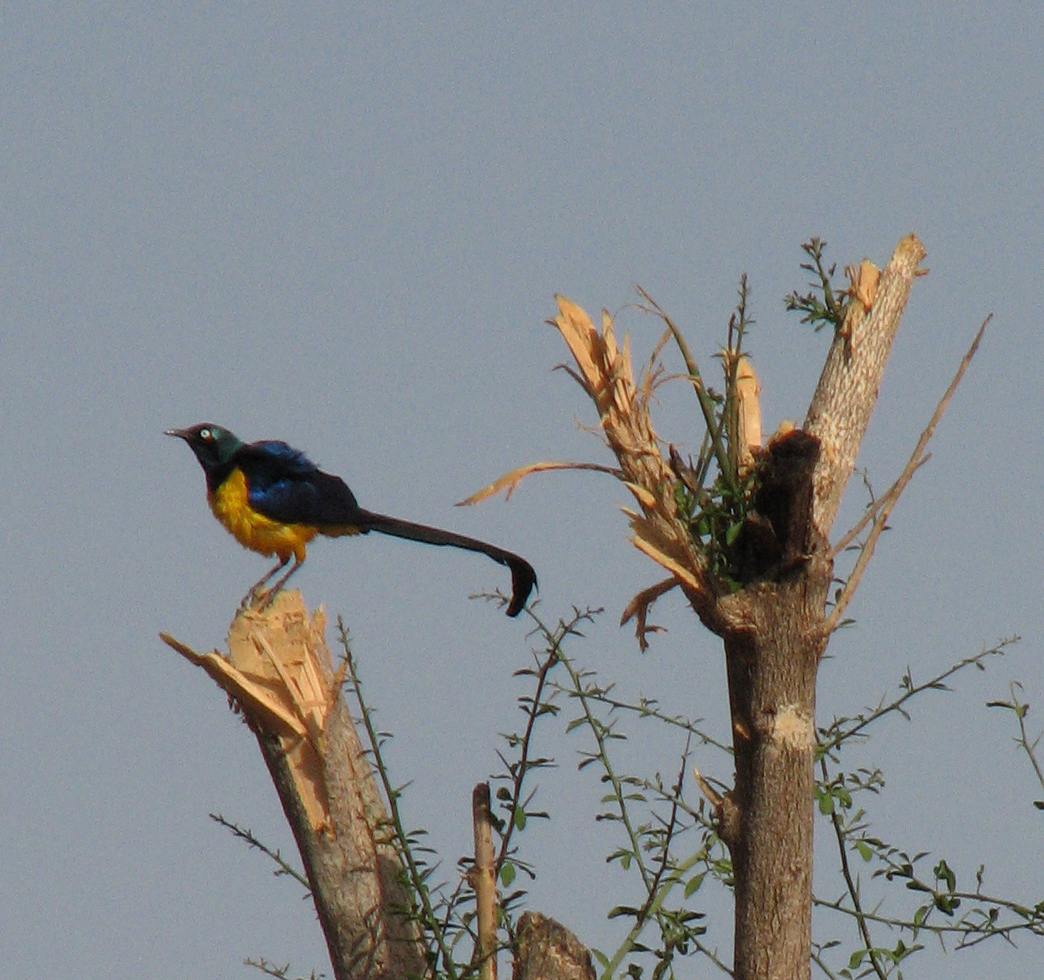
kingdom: Animalia
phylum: Chordata
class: Aves
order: Passeriformes
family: Sturnidae
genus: Lamprotornis
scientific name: Lamprotornis regius
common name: Golden-breasted starling
